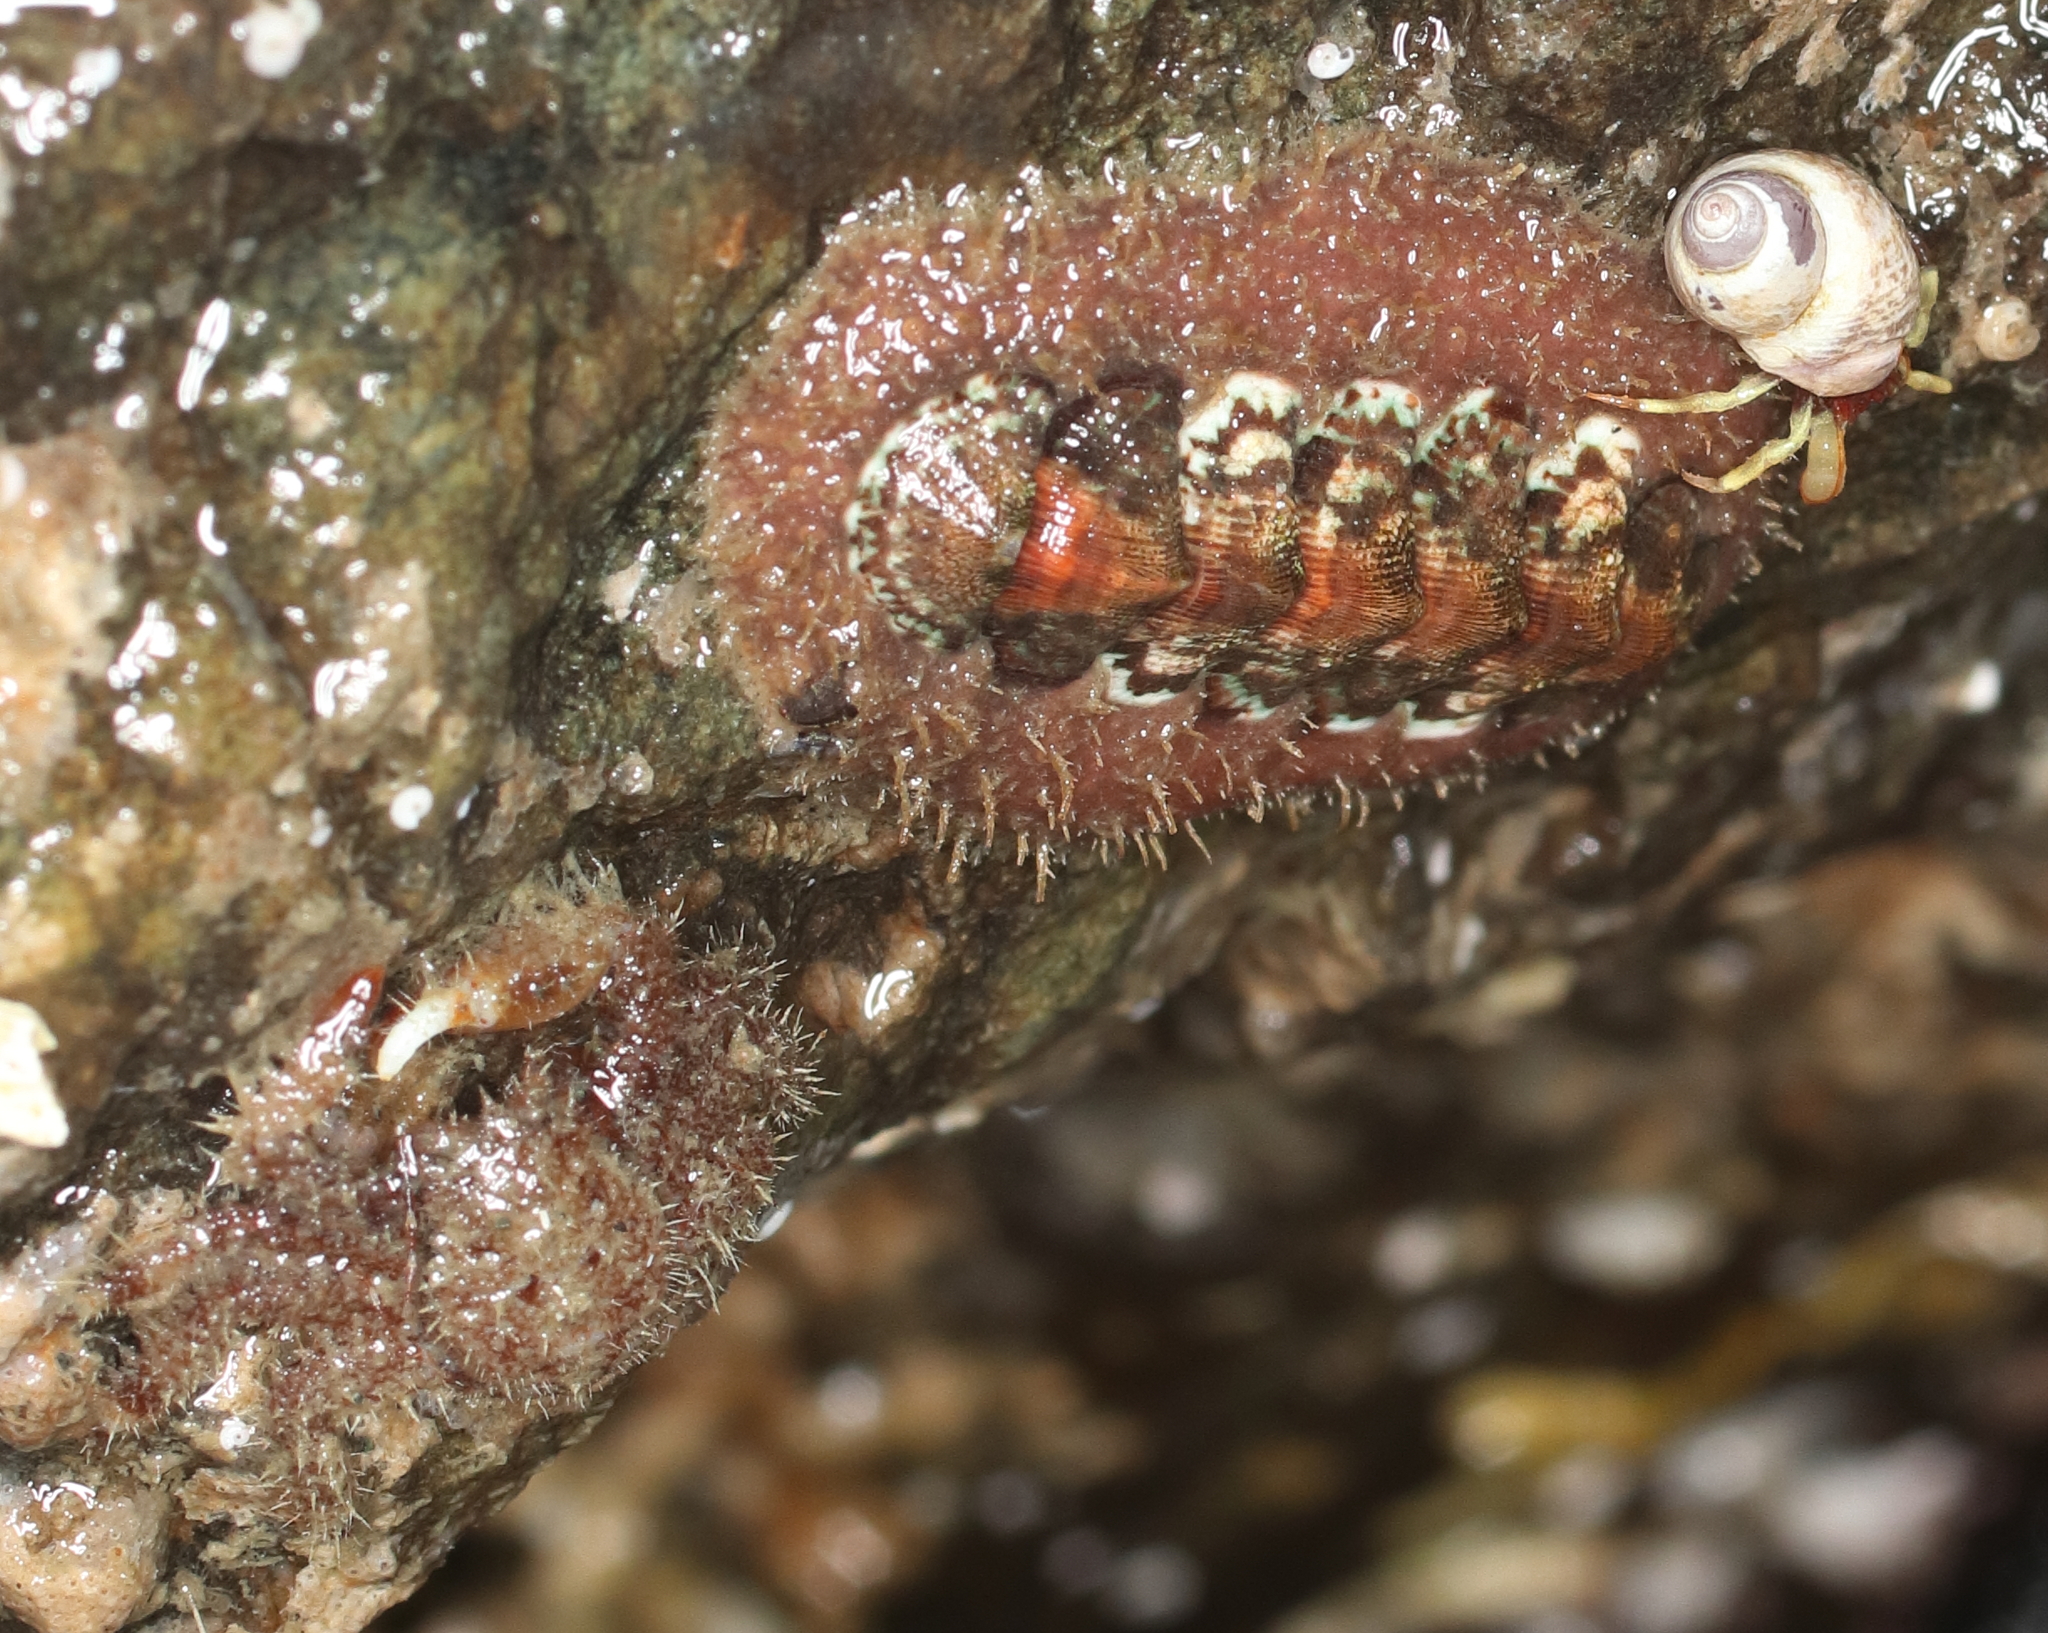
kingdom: Animalia
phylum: Mollusca
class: Polyplacophora
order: Chitonida
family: Mopaliidae
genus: Mopalia
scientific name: Mopalia ciliata
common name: Hairy chiton
